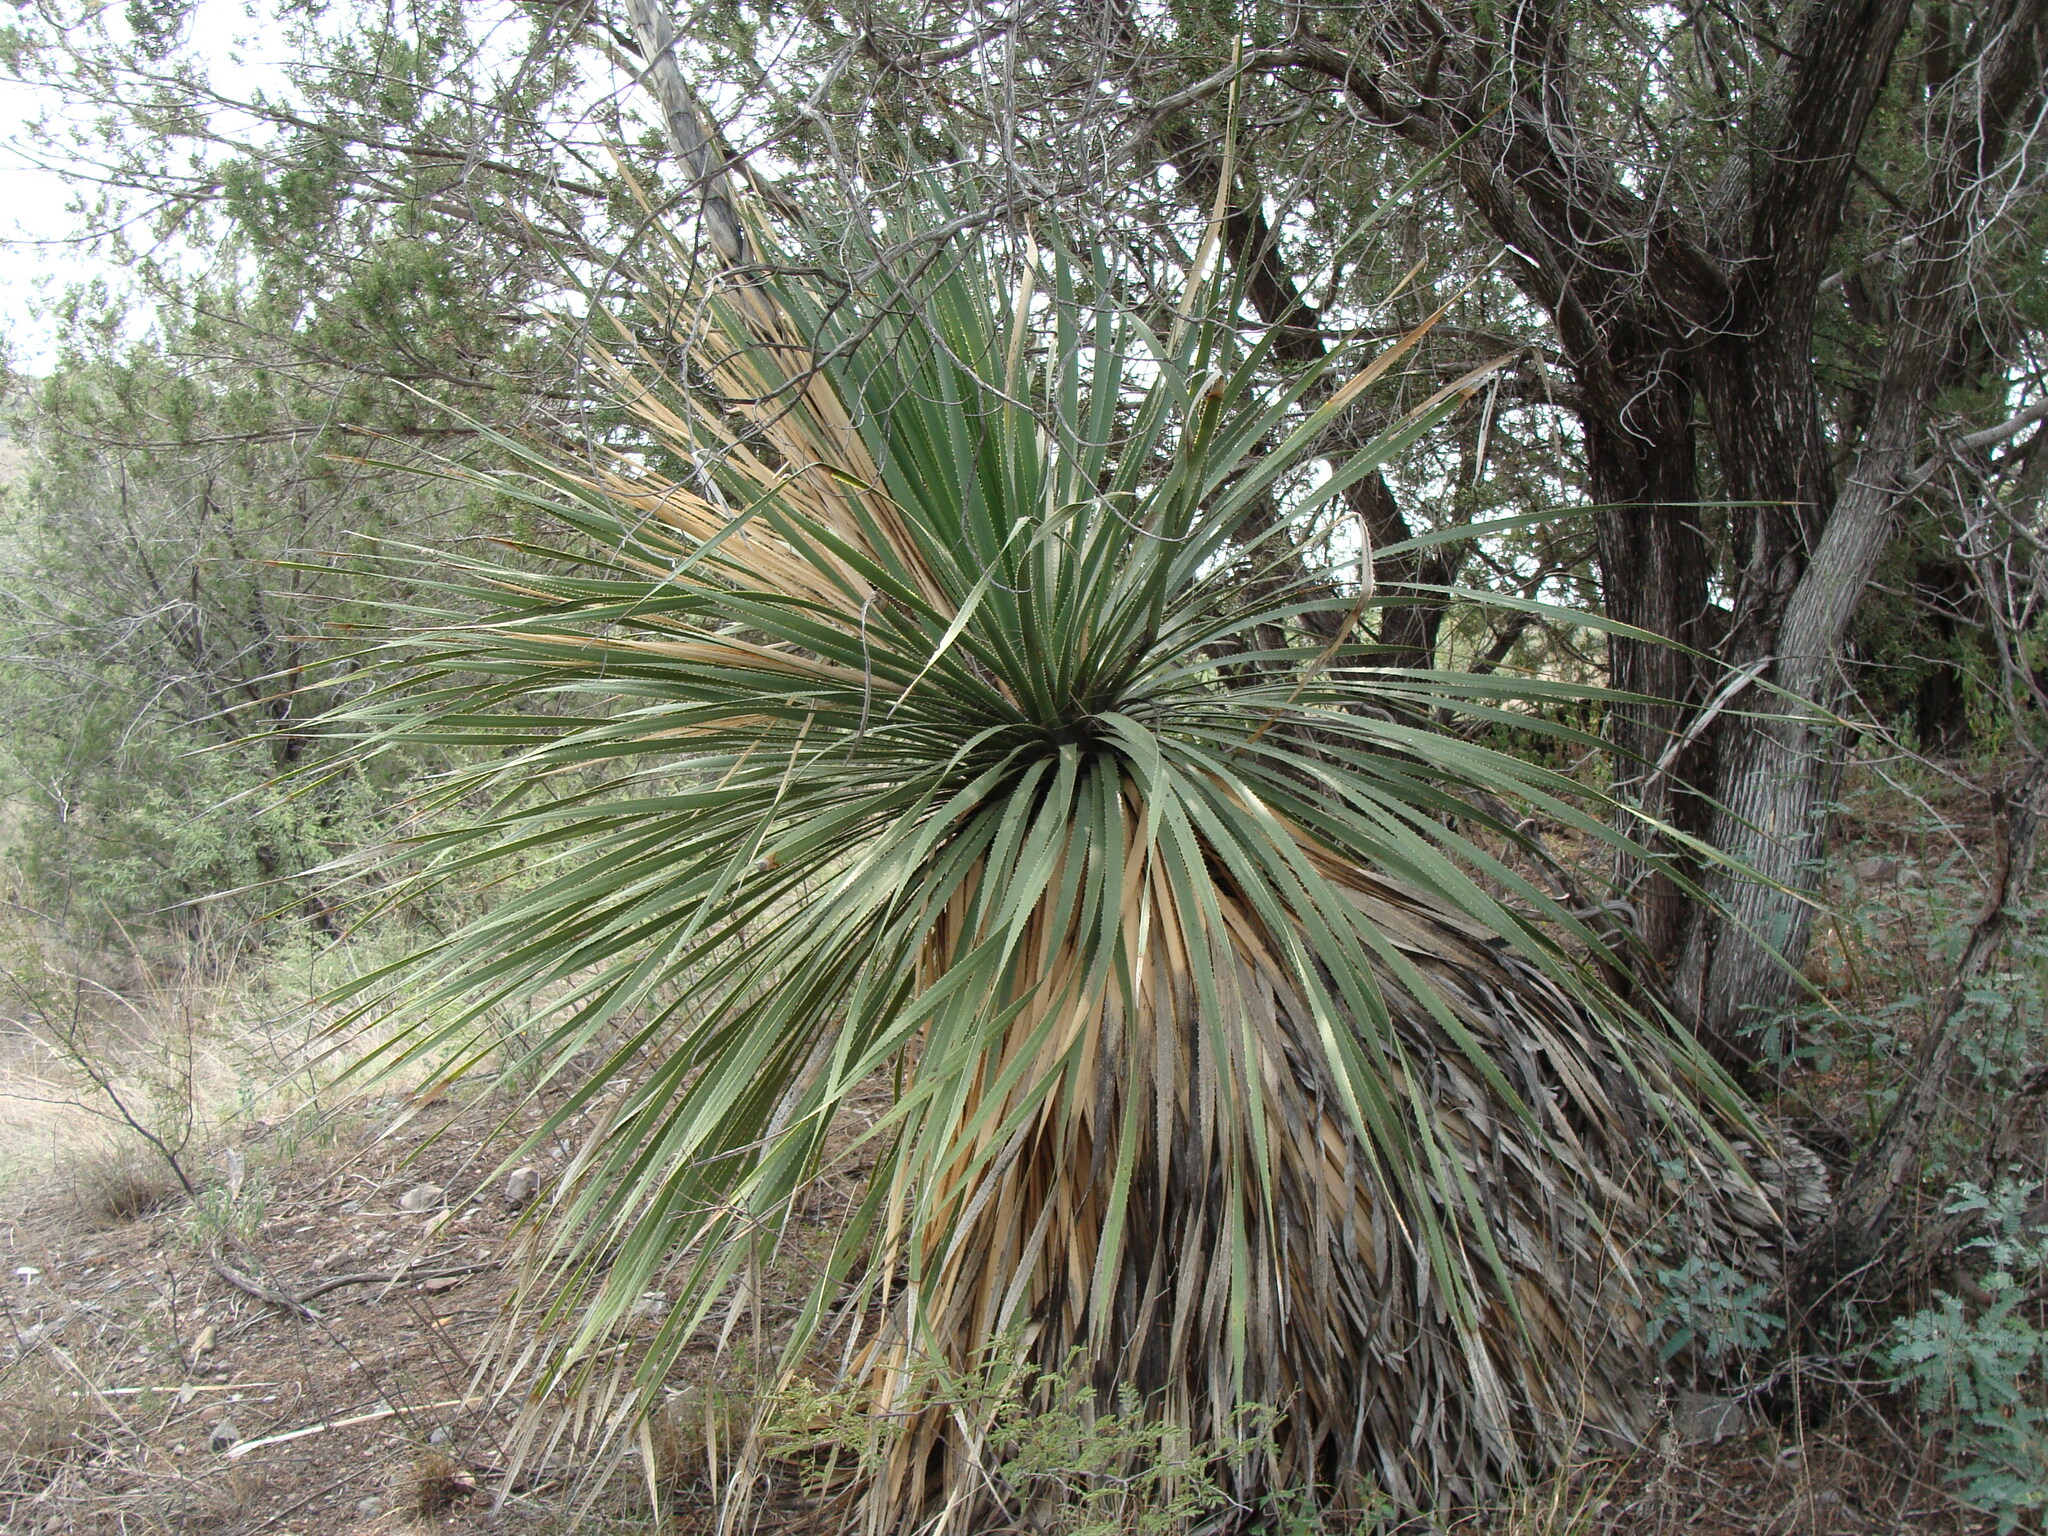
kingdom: Plantae
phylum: Tracheophyta
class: Liliopsida
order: Asparagales
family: Asparagaceae
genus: Dasylirion
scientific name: Dasylirion wheeleri
